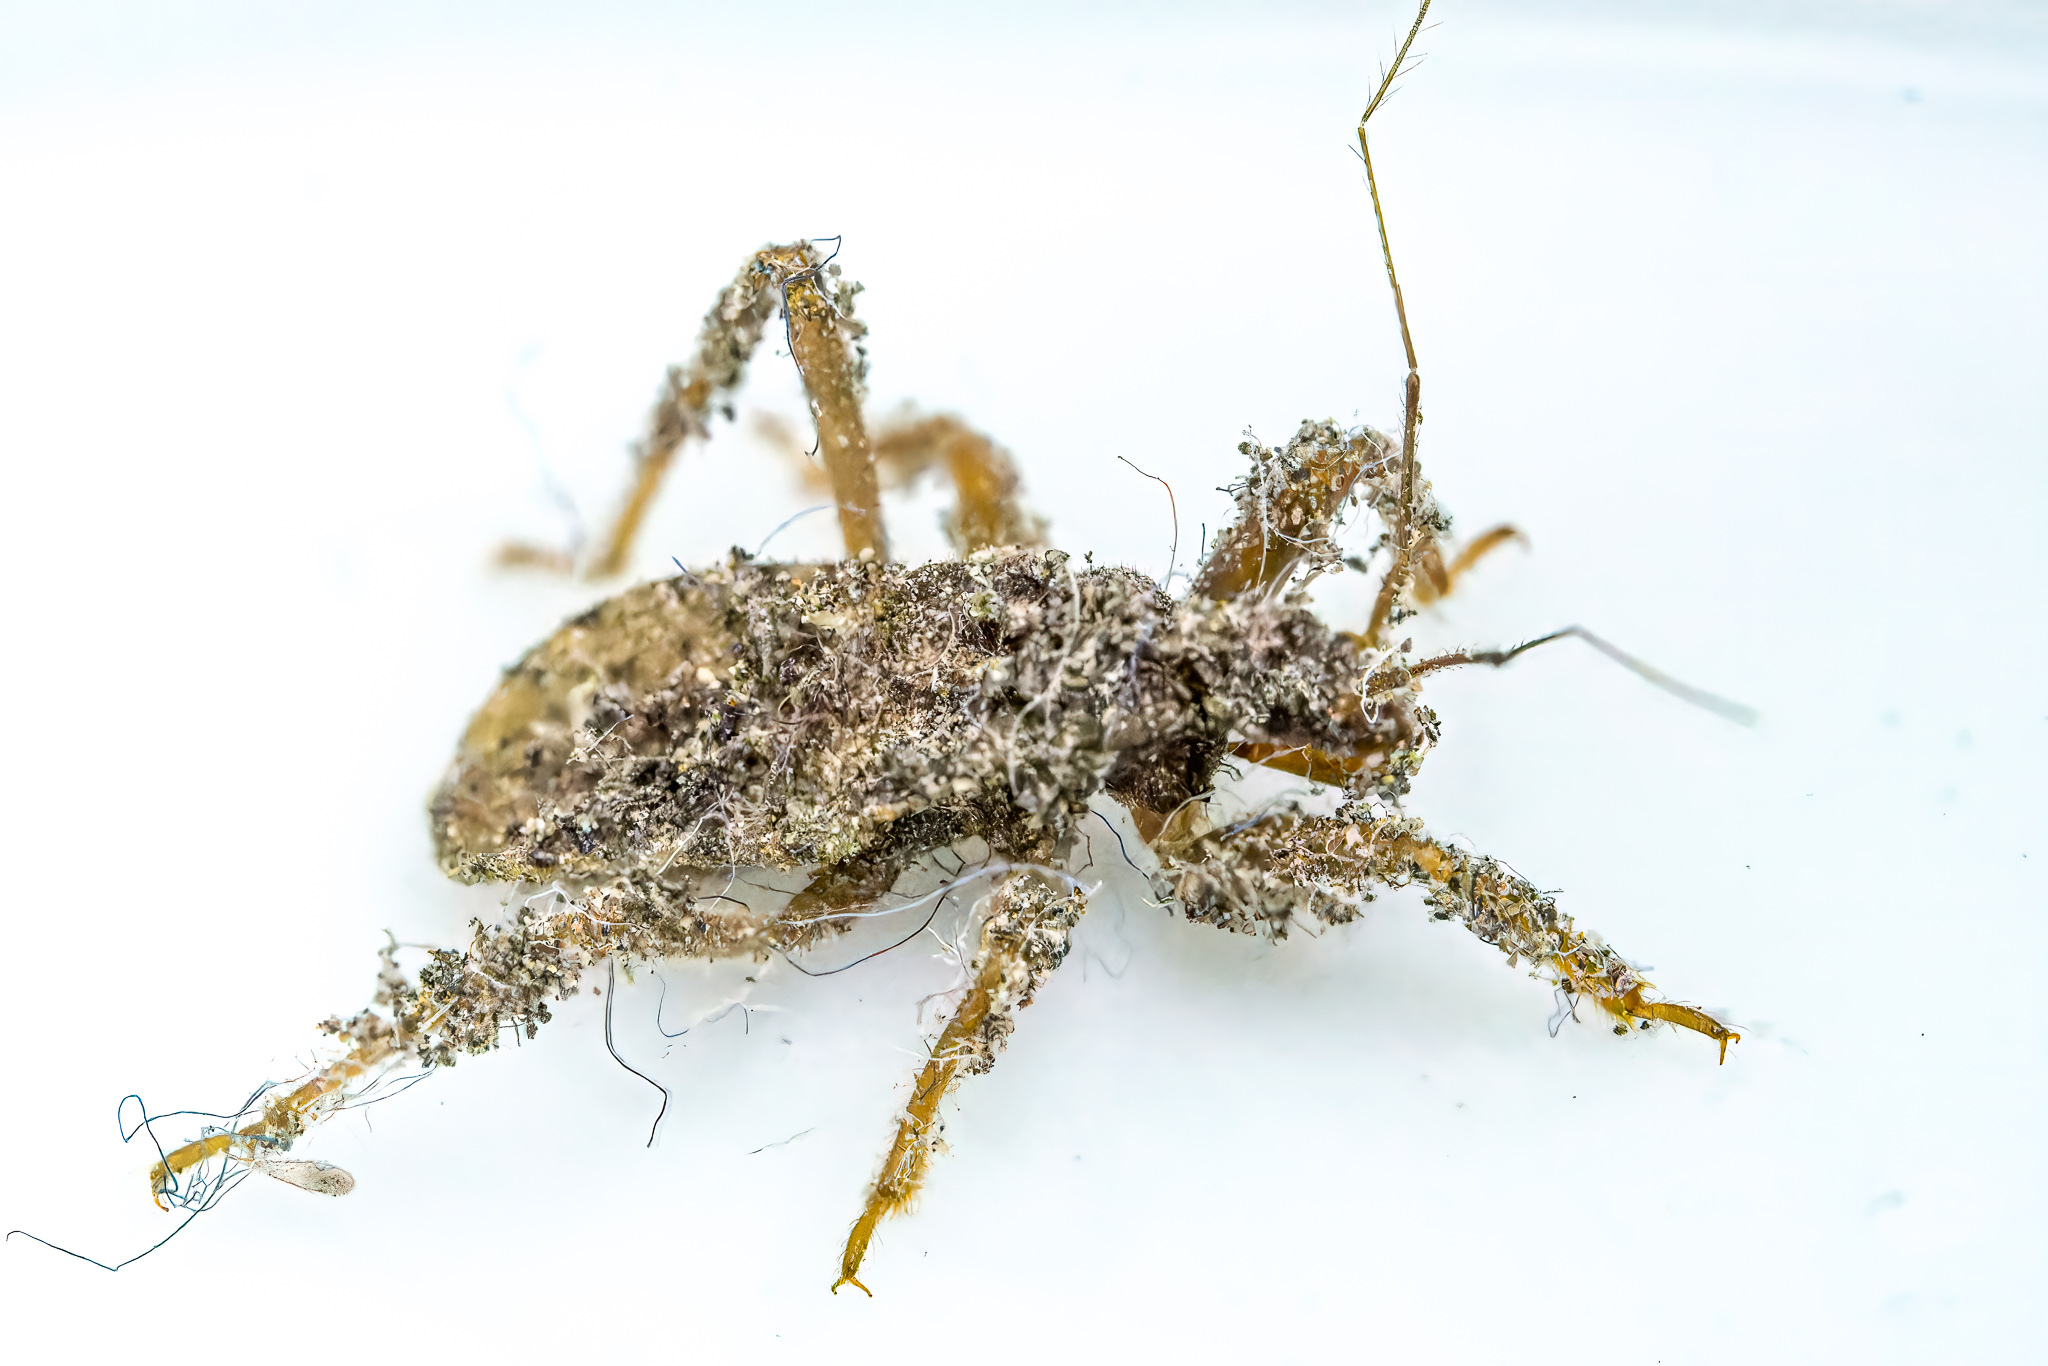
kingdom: Animalia
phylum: Arthropoda
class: Insecta
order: Hemiptera
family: Reduviidae
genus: Reduvius
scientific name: Reduvius personatus
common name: Masked hunter
